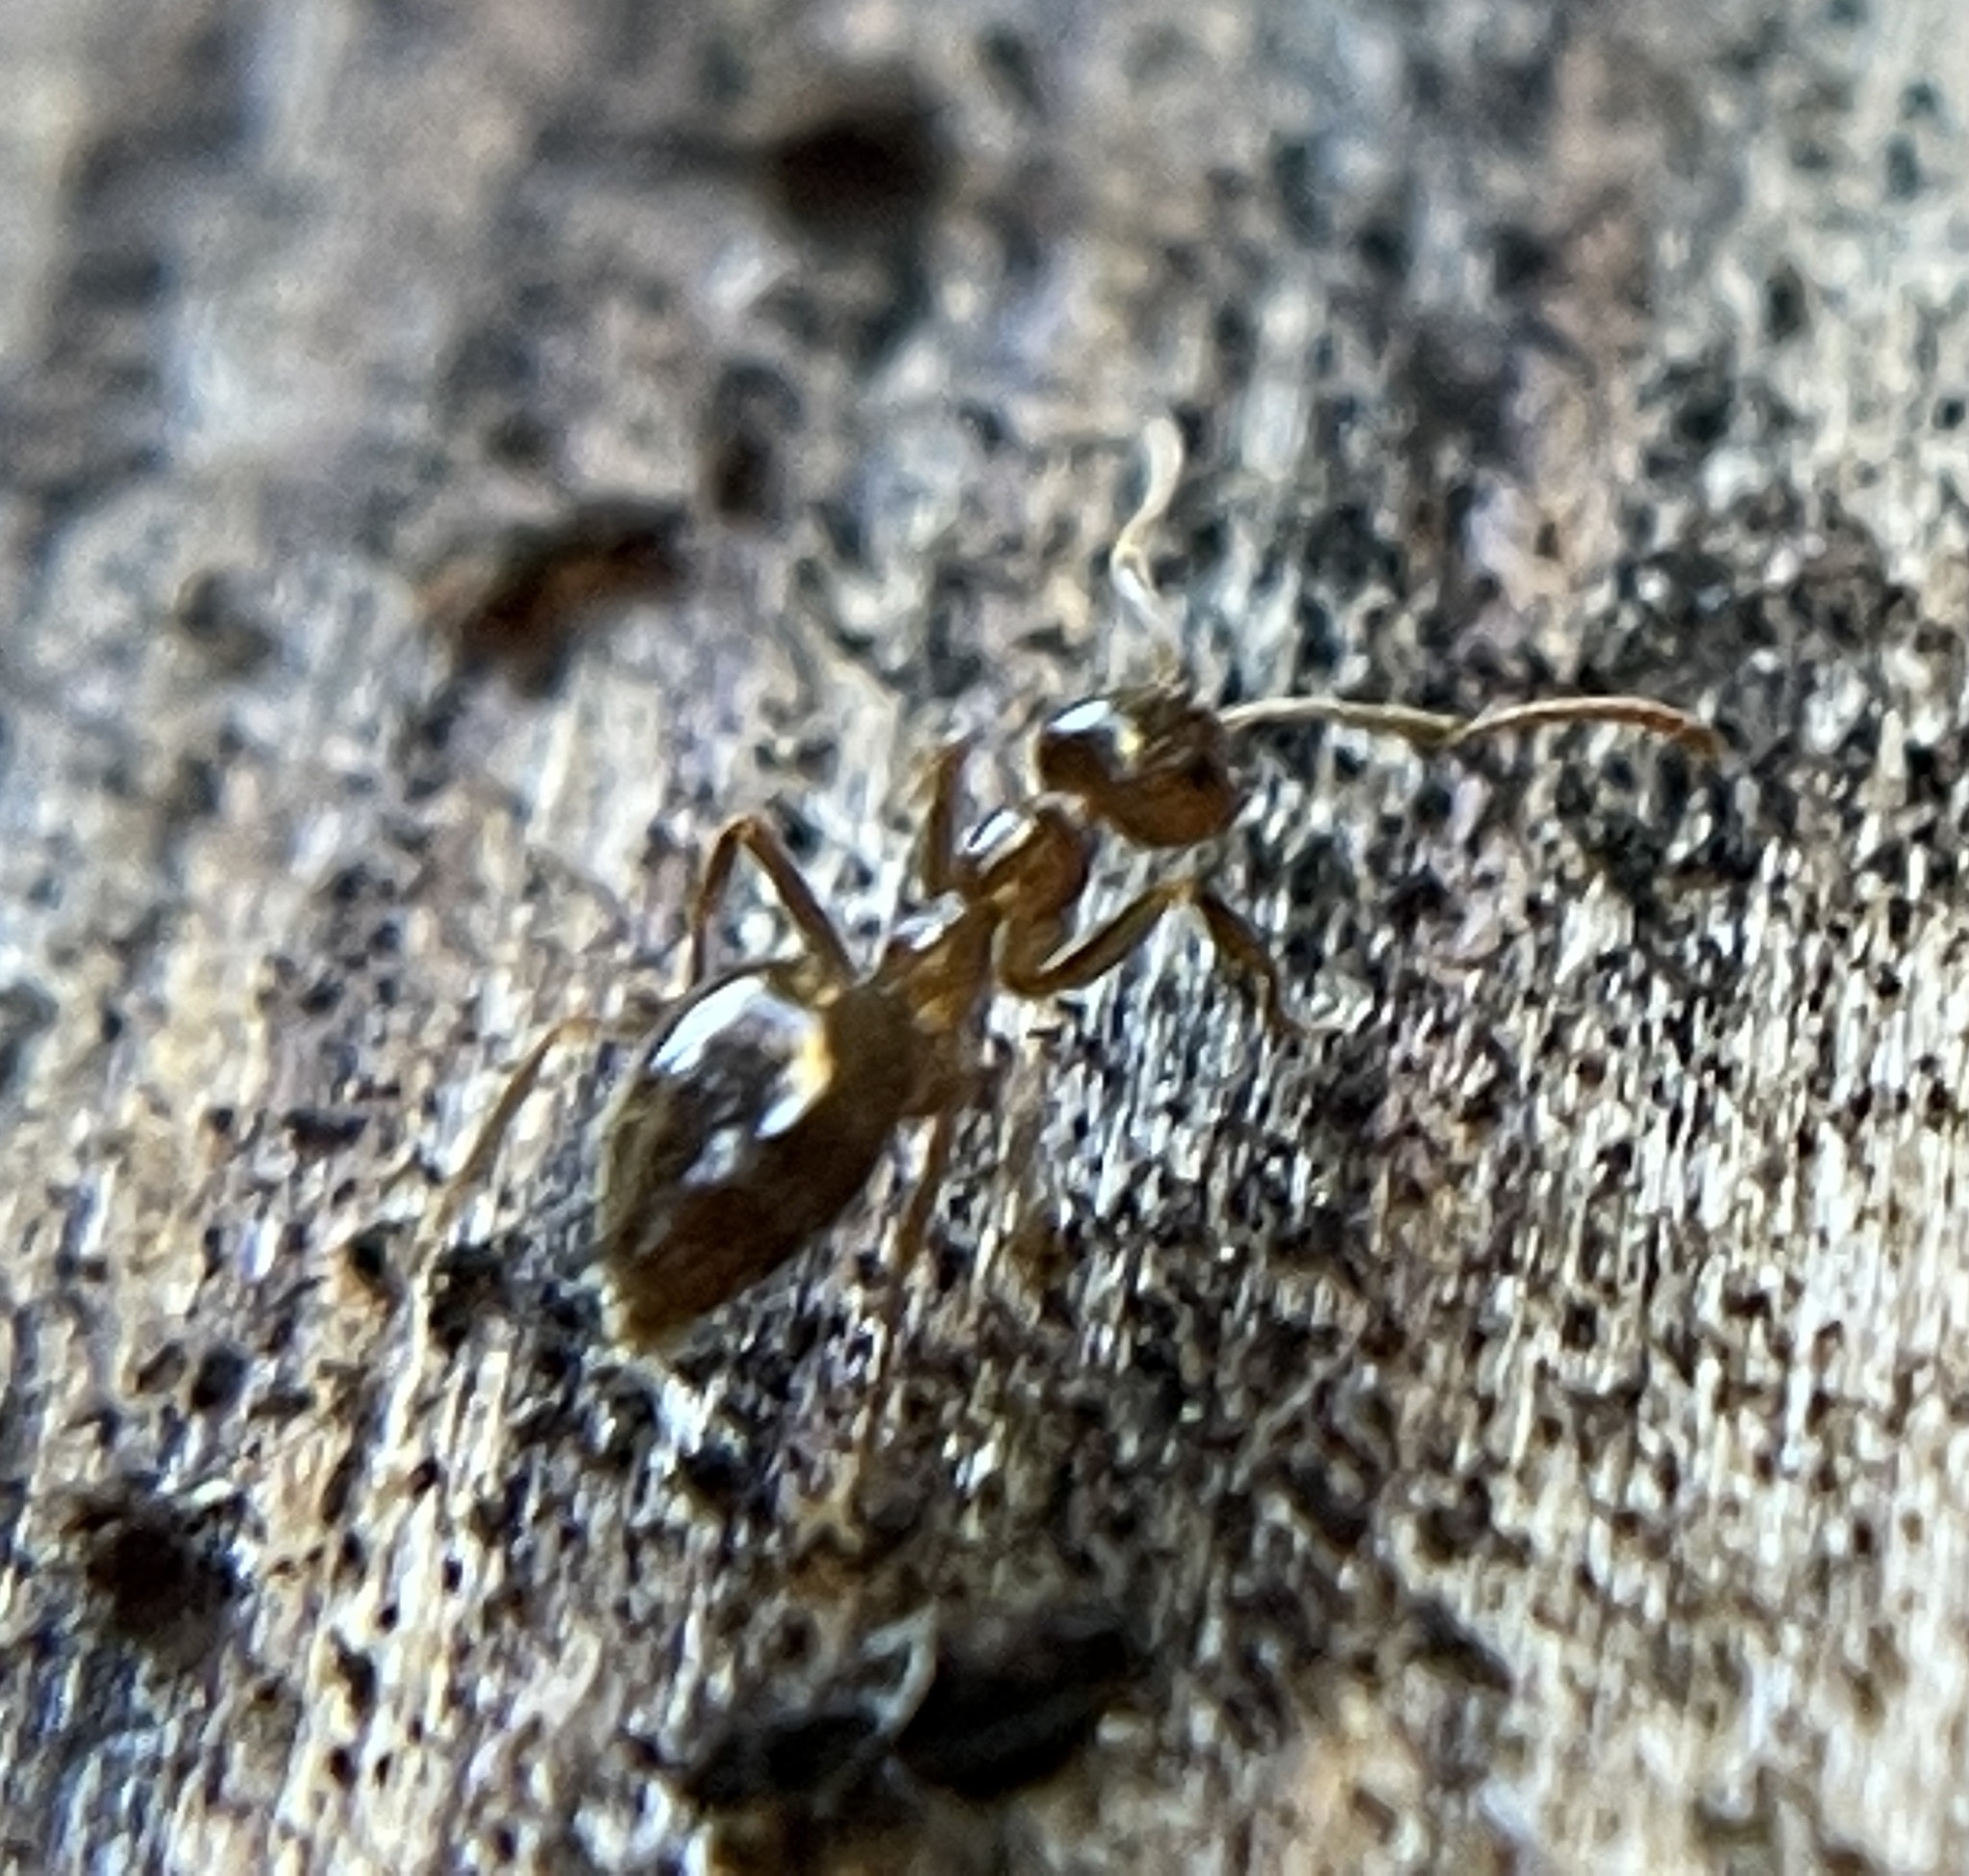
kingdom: Animalia
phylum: Arthropoda
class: Insecta
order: Hymenoptera
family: Formicidae
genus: Prenolepis
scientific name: Prenolepis imparis
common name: Small honey ant
